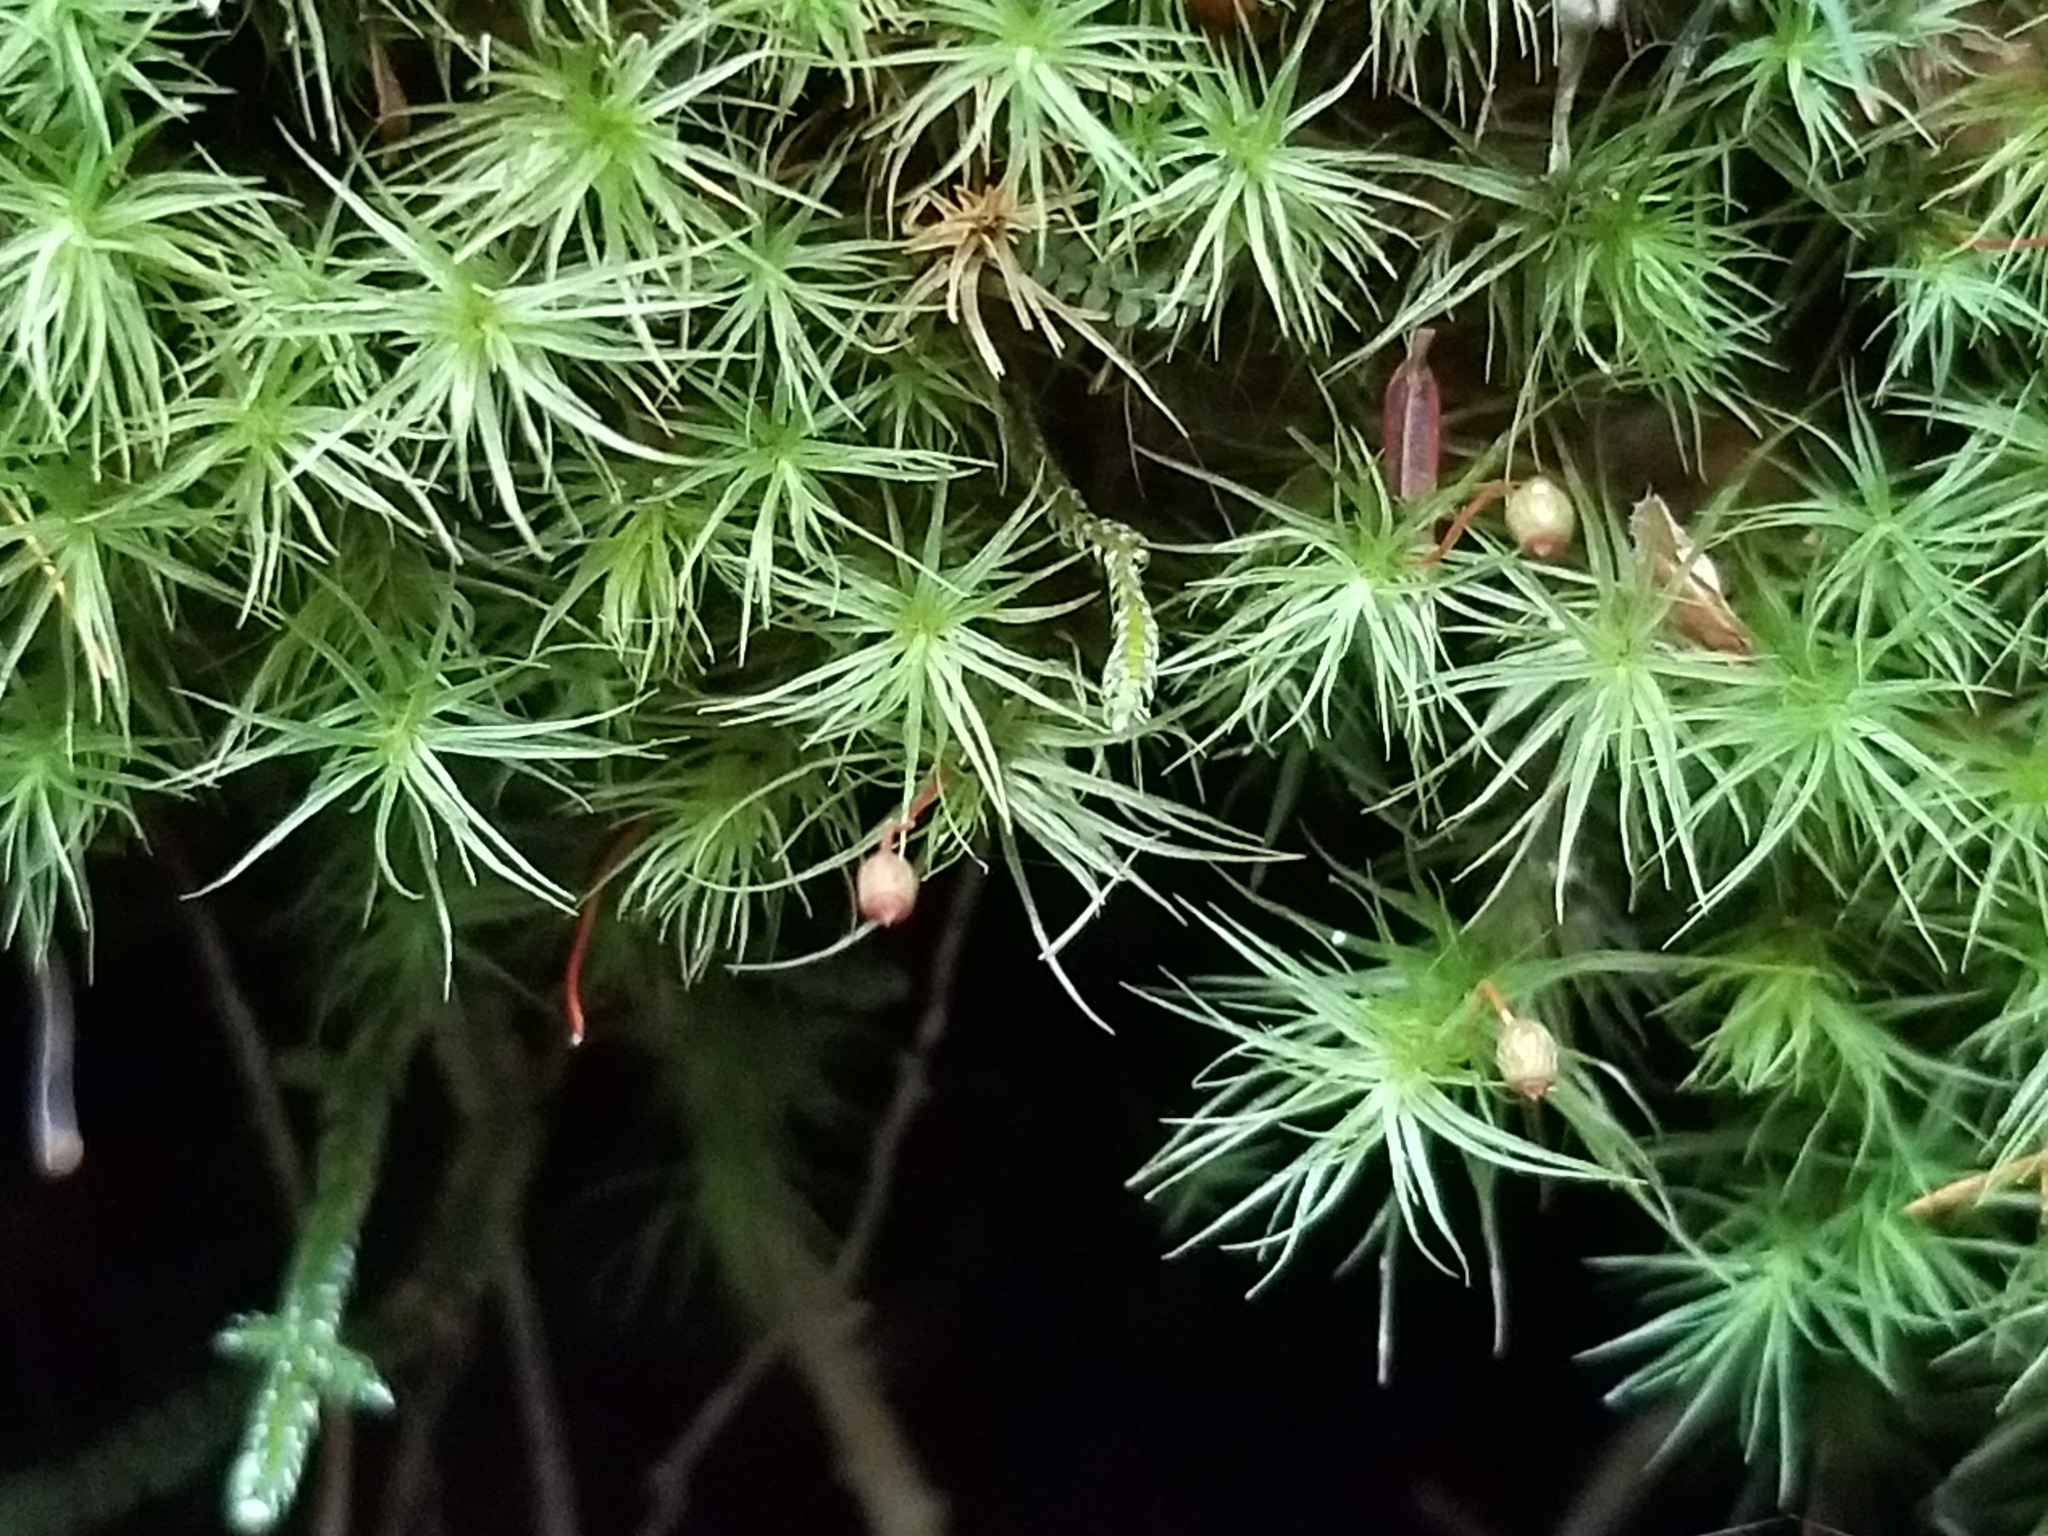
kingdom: Plantae
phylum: Bryophyta
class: Bryopsida
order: Bartramiales
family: Bartramiaceae
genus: Bartramia
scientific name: Bartramia ithyphylla
